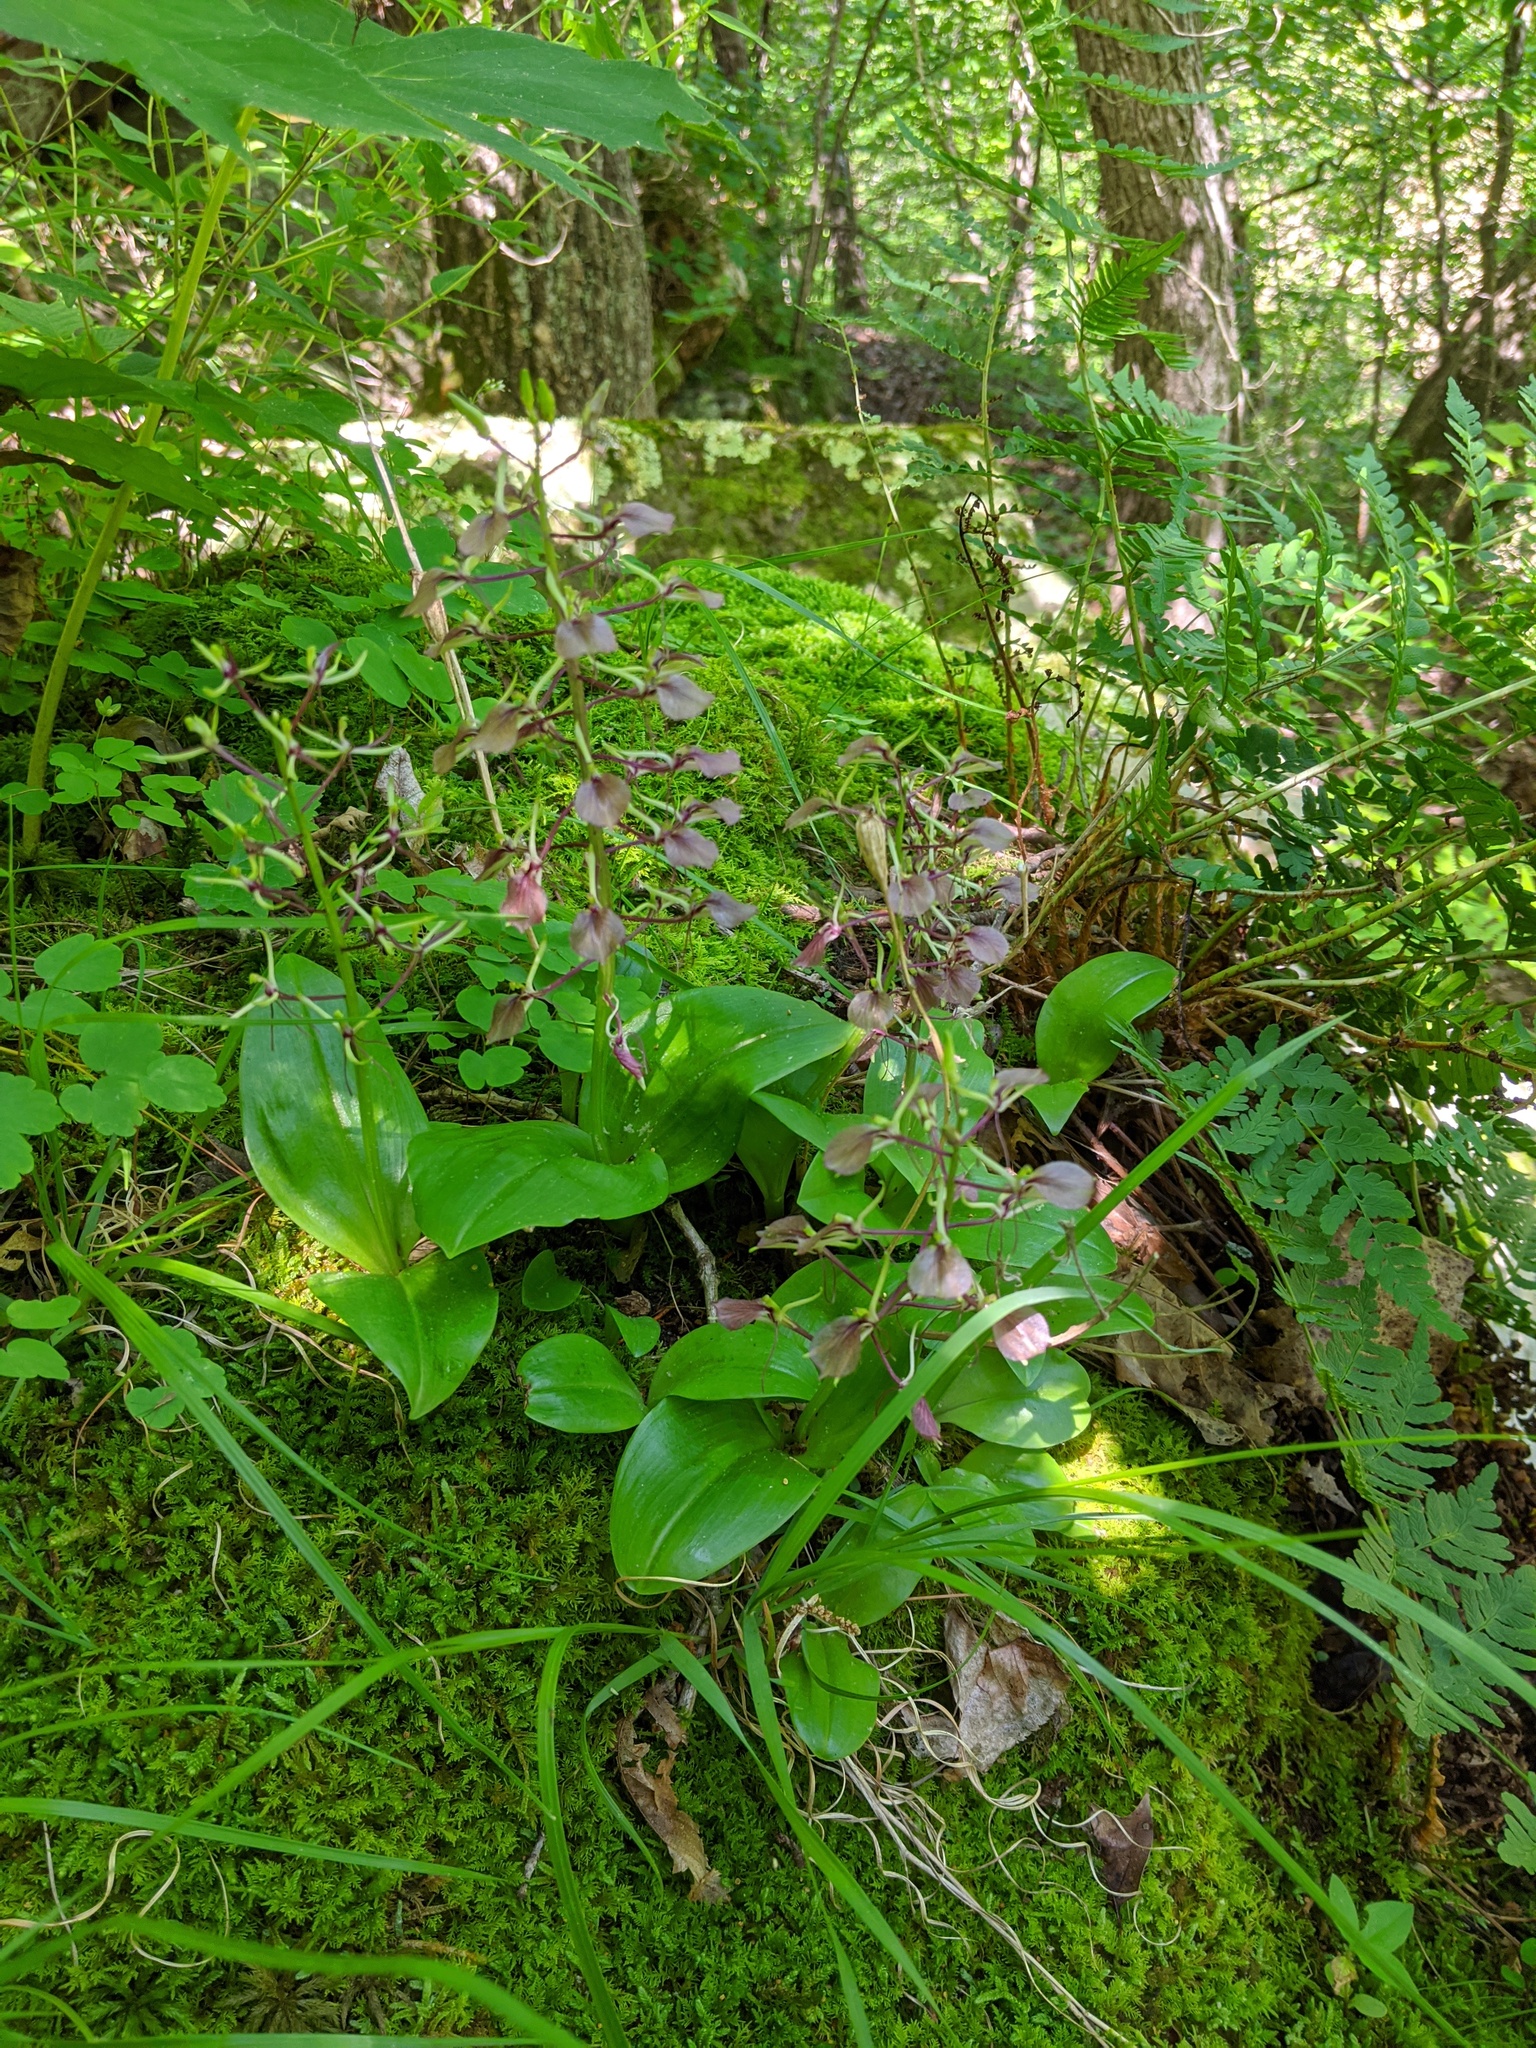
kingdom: Plantae
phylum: Tracheophyta
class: Liliopsida
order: Asparagales
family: Orchidaceae
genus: Liparis
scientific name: Liparis liliifolia
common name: Brown wide-lip orchid
